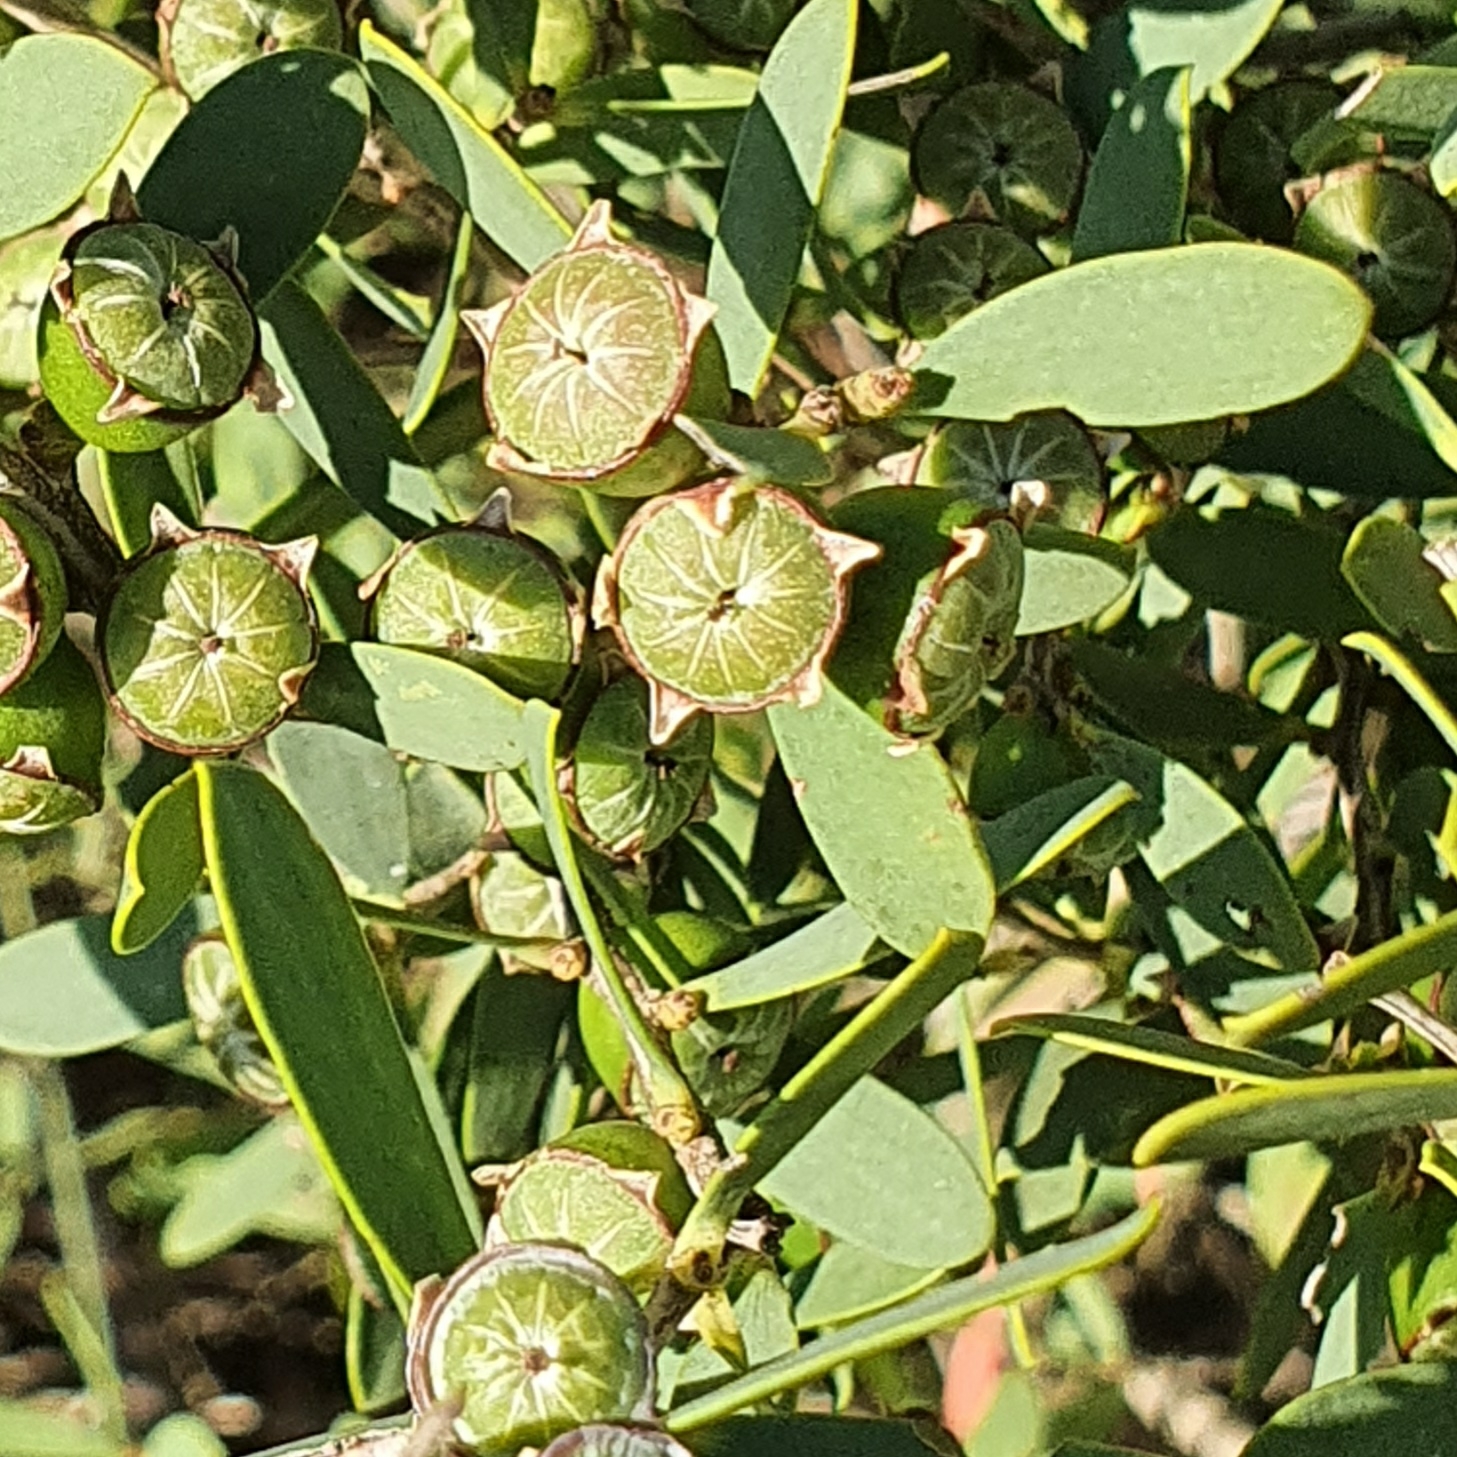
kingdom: Plantae
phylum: Tracheophyta
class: Magnoliopsida
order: Myrtales
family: Myrtaceae
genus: Leptospermum
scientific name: Leptospermum laevigatum
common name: Australian teatree
